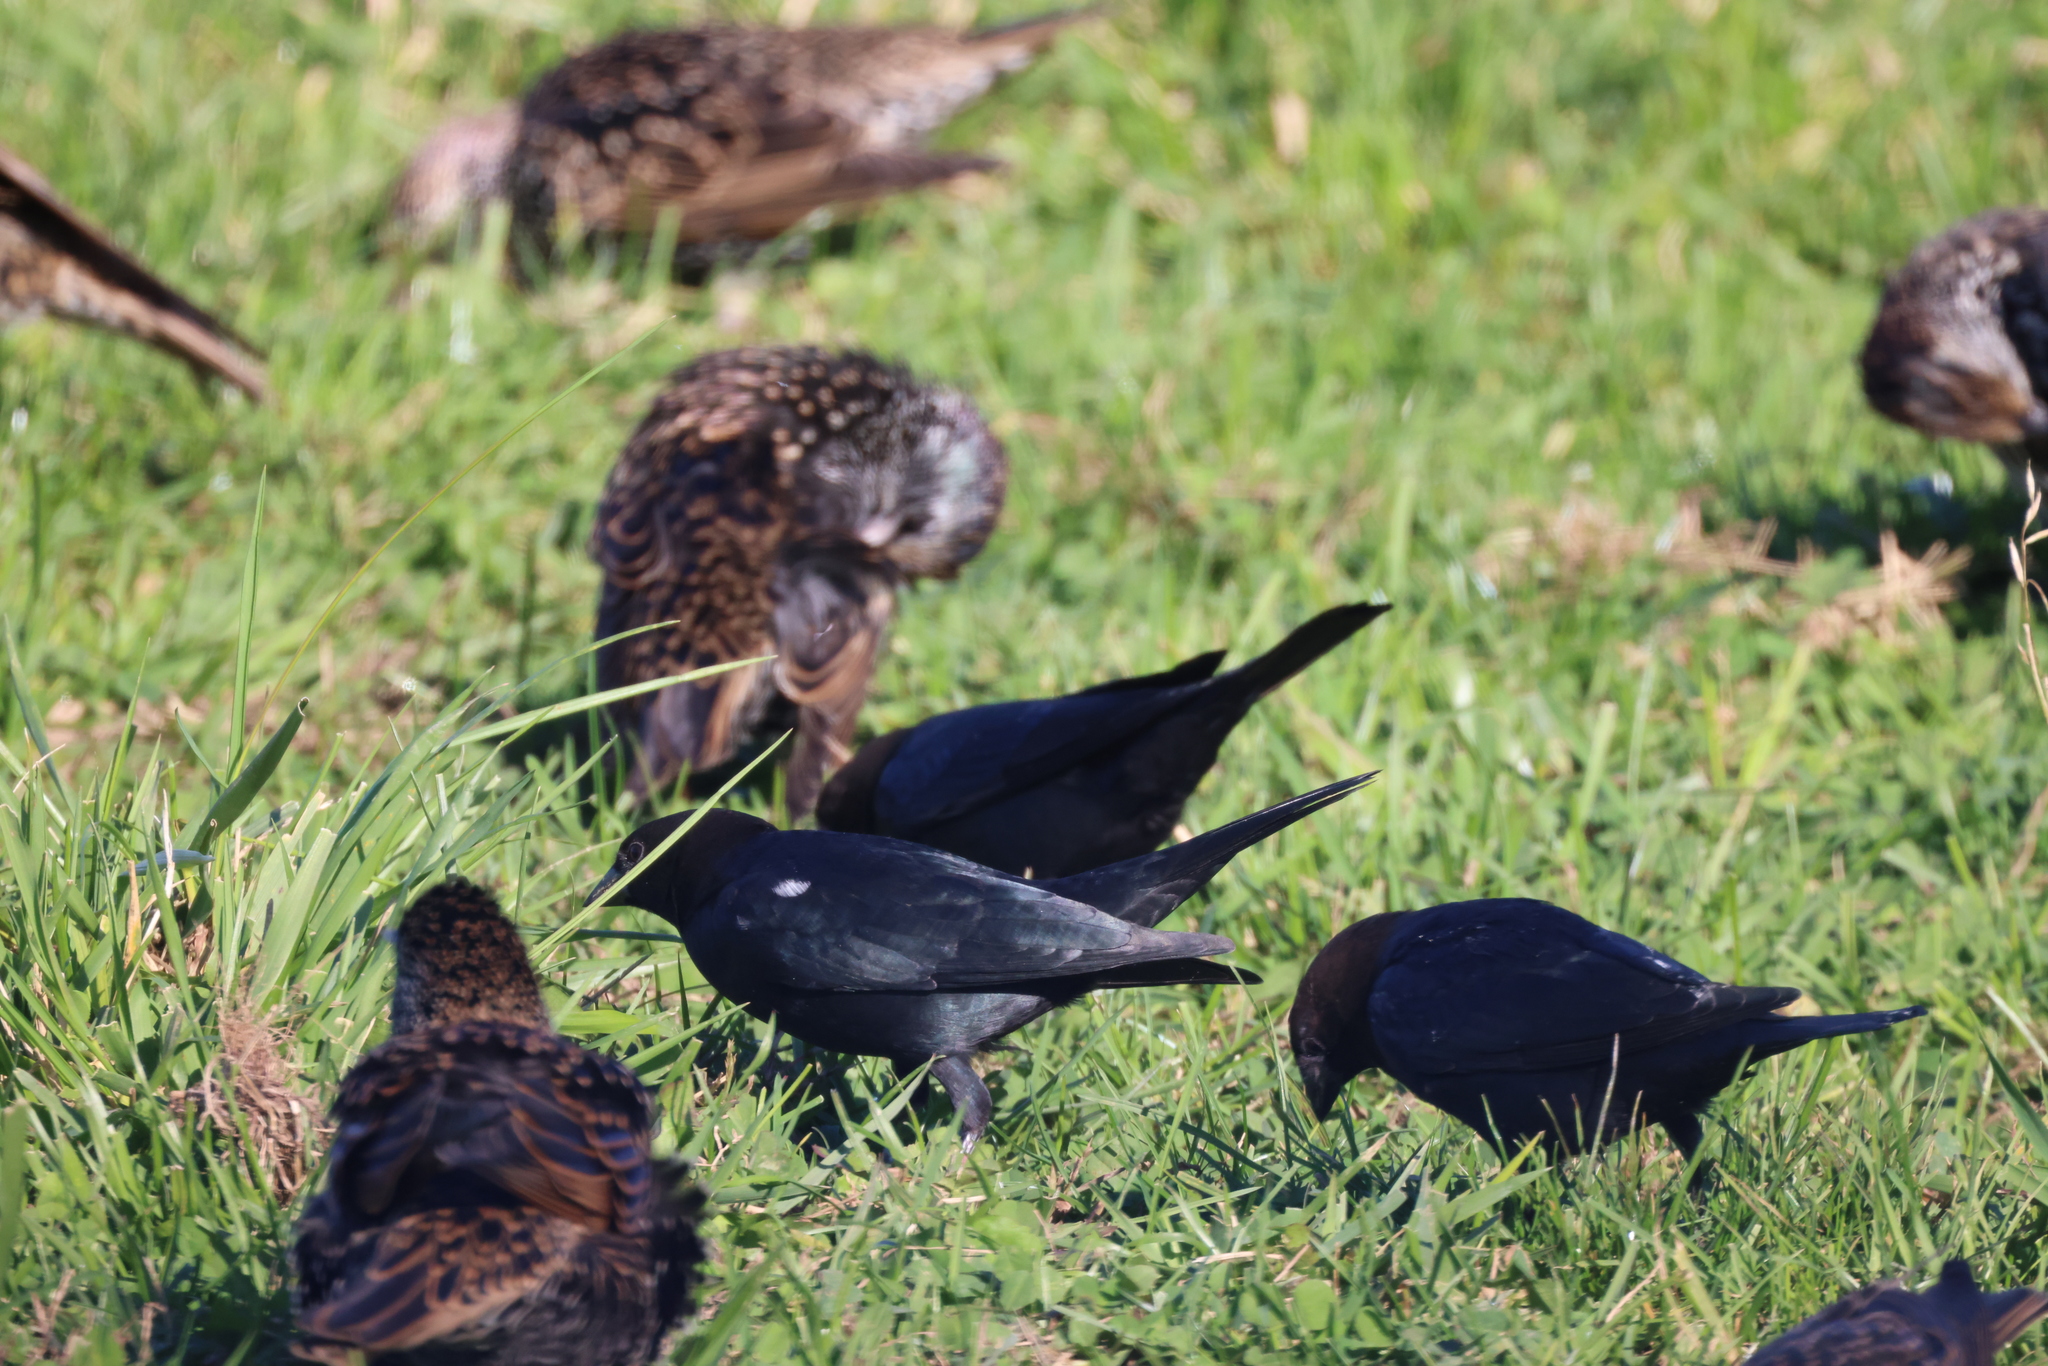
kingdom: Animalia
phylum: Chordata
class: Aves
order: Passeriformes
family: Sturnidae
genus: Sturnus
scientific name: Sturnus vulgaris
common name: Common starling
